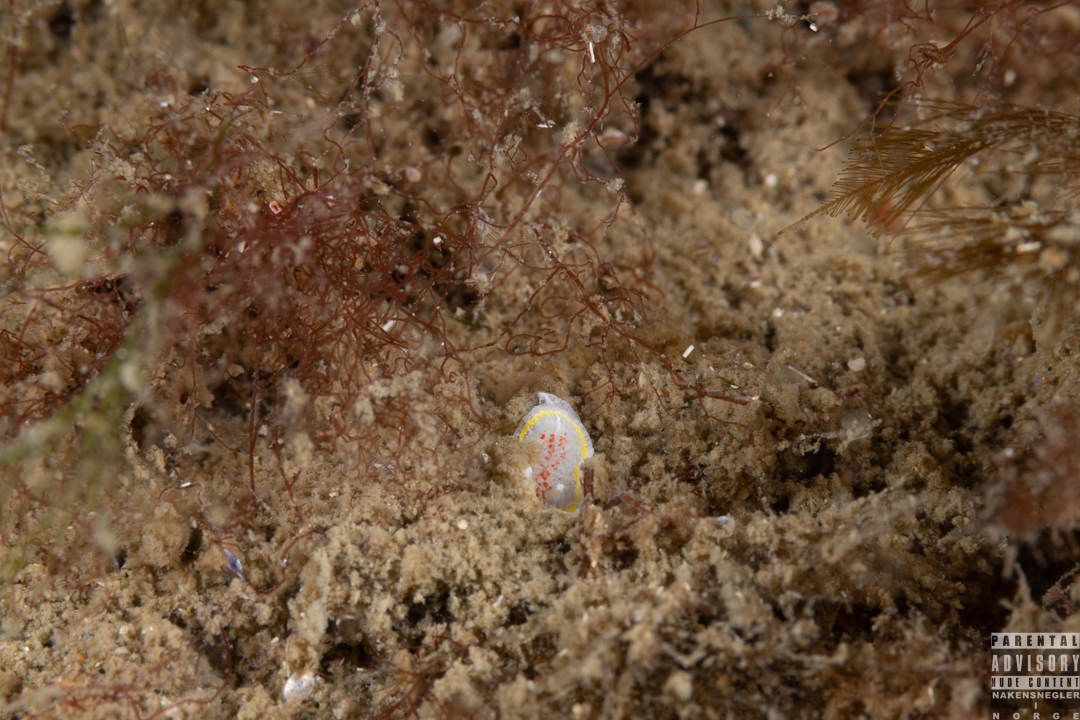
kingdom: Animalia
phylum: Mollusca
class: Gastropoda
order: Nudibranchia
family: Calycidorididae
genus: Diaphorodoris
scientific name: Diaphorodoris luteocincta
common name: Fried egg nudibranch
